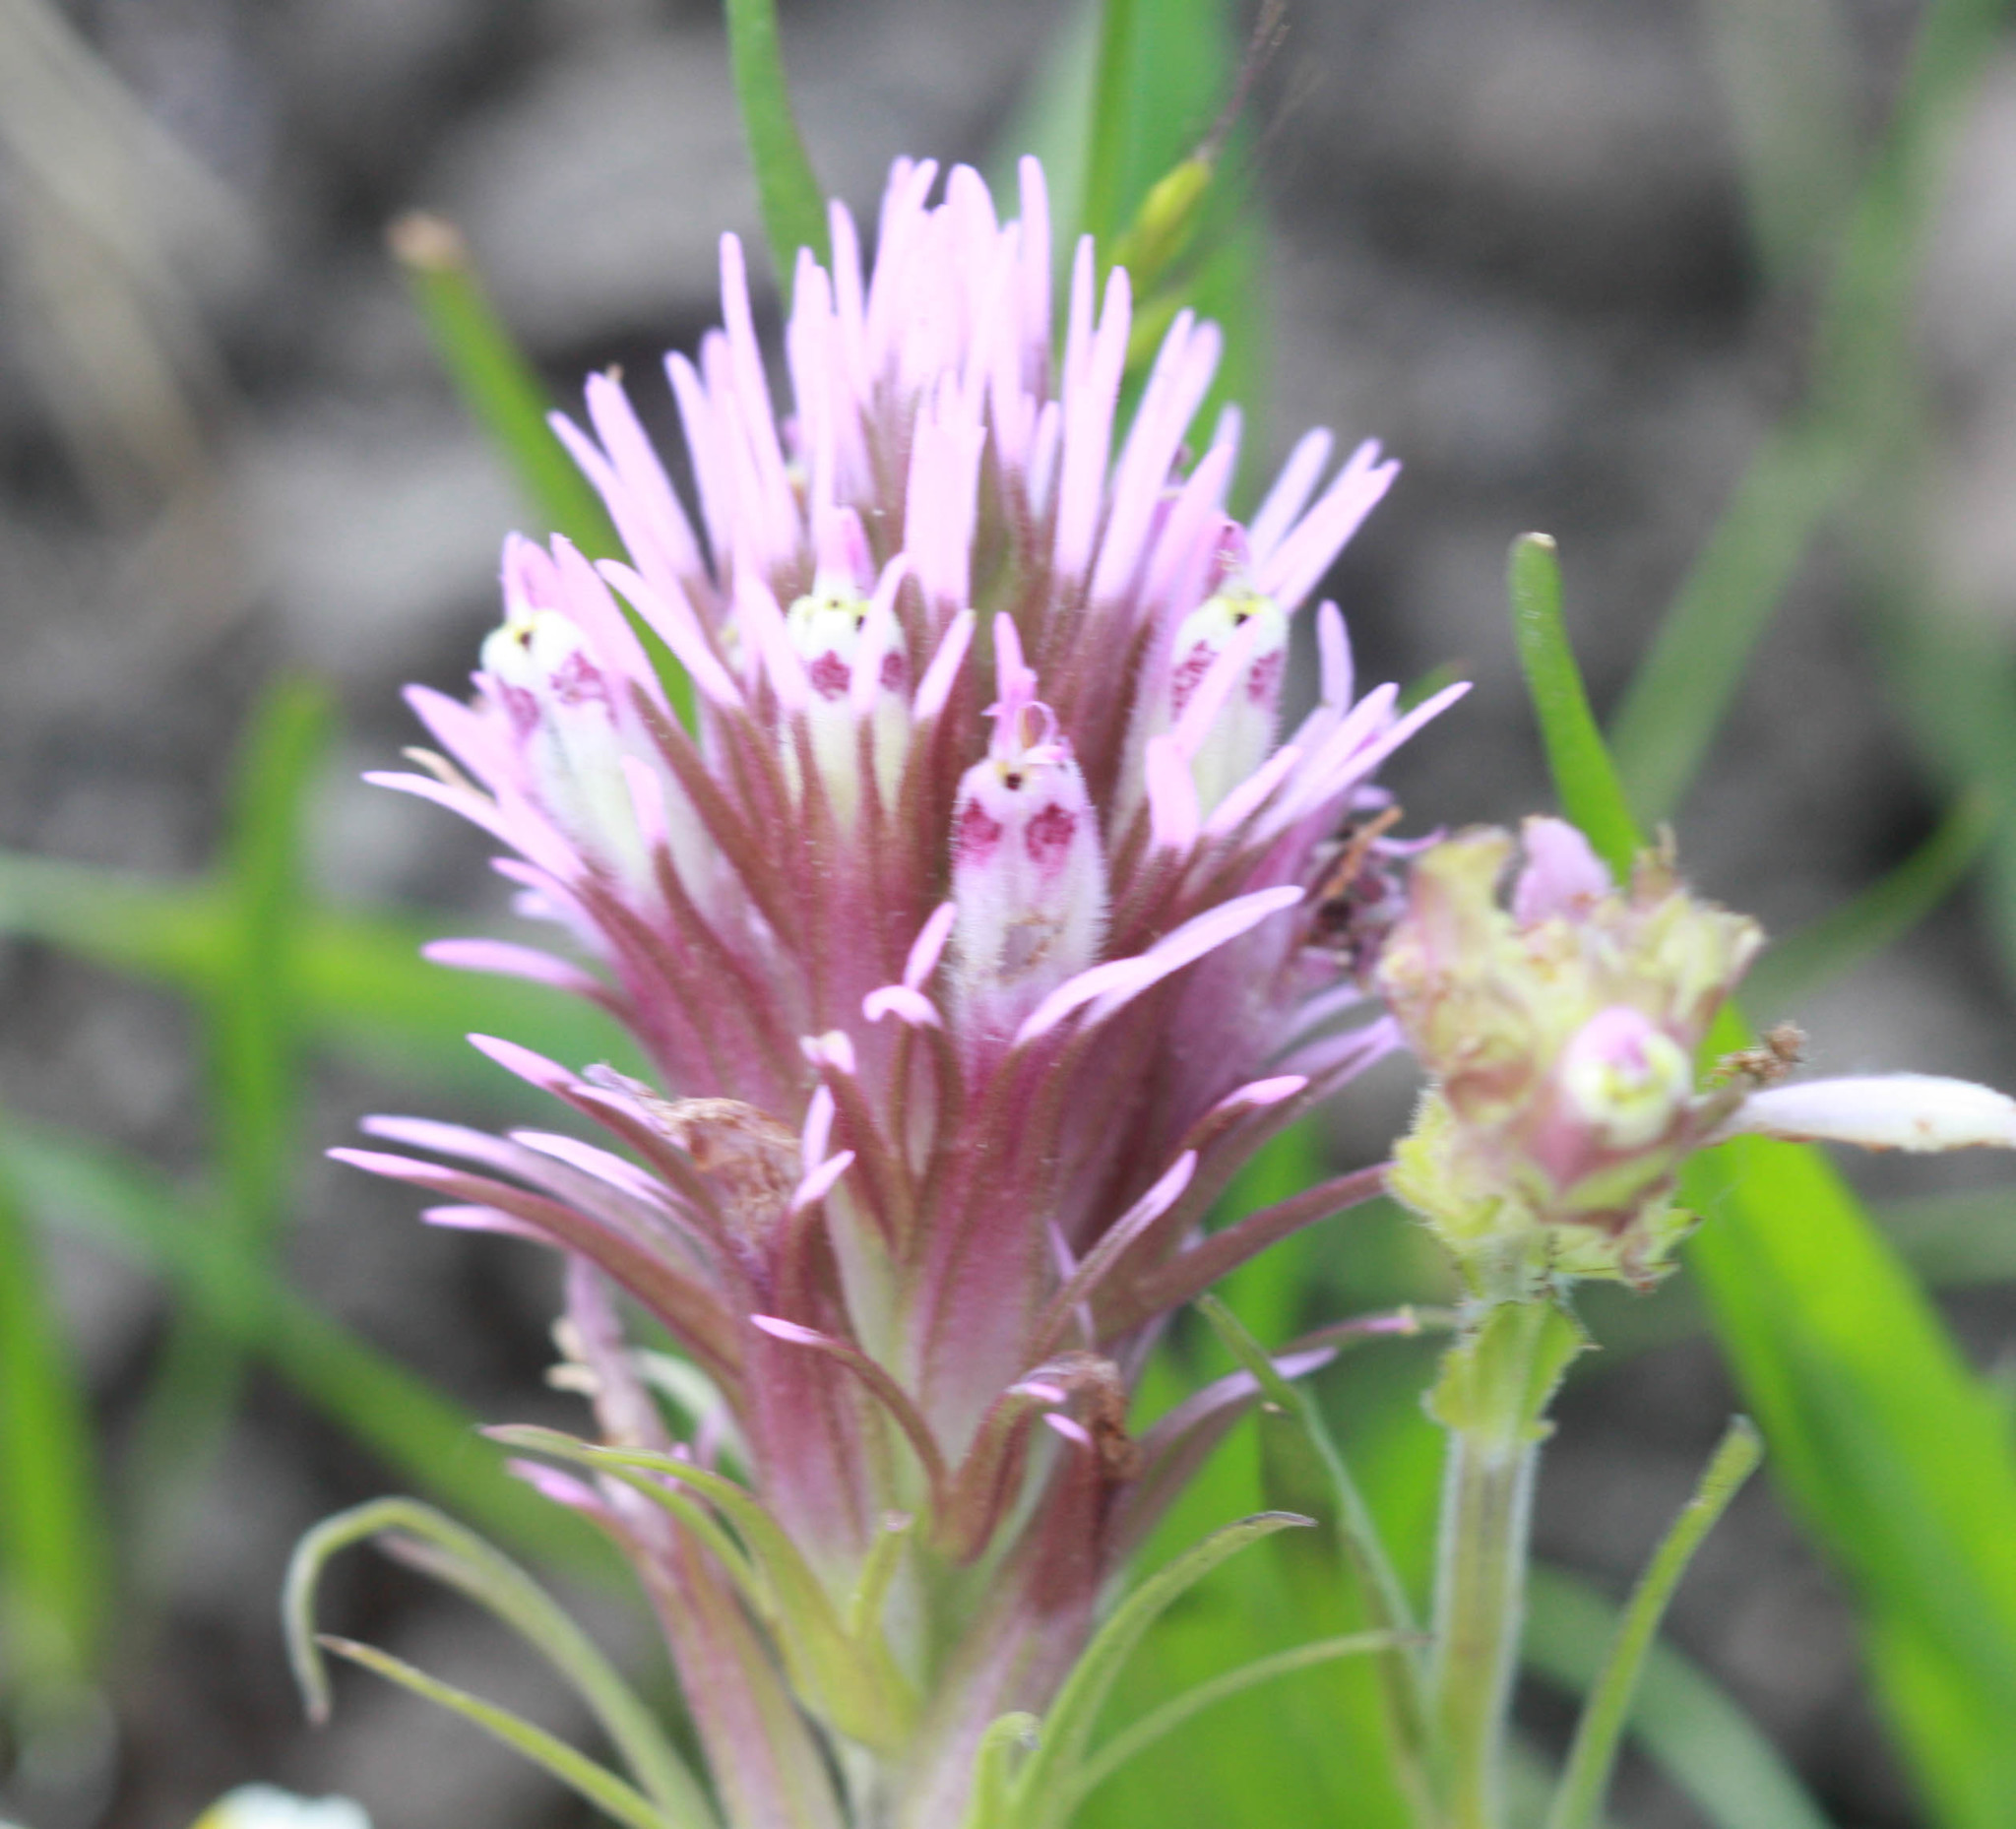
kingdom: Plantae
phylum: Tracheophyta
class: Magnoliopsida
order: Lamiales
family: Orobanchaceae
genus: Castilleja
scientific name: Castilleja densiflora
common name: Dense-flower indian paintbrush
